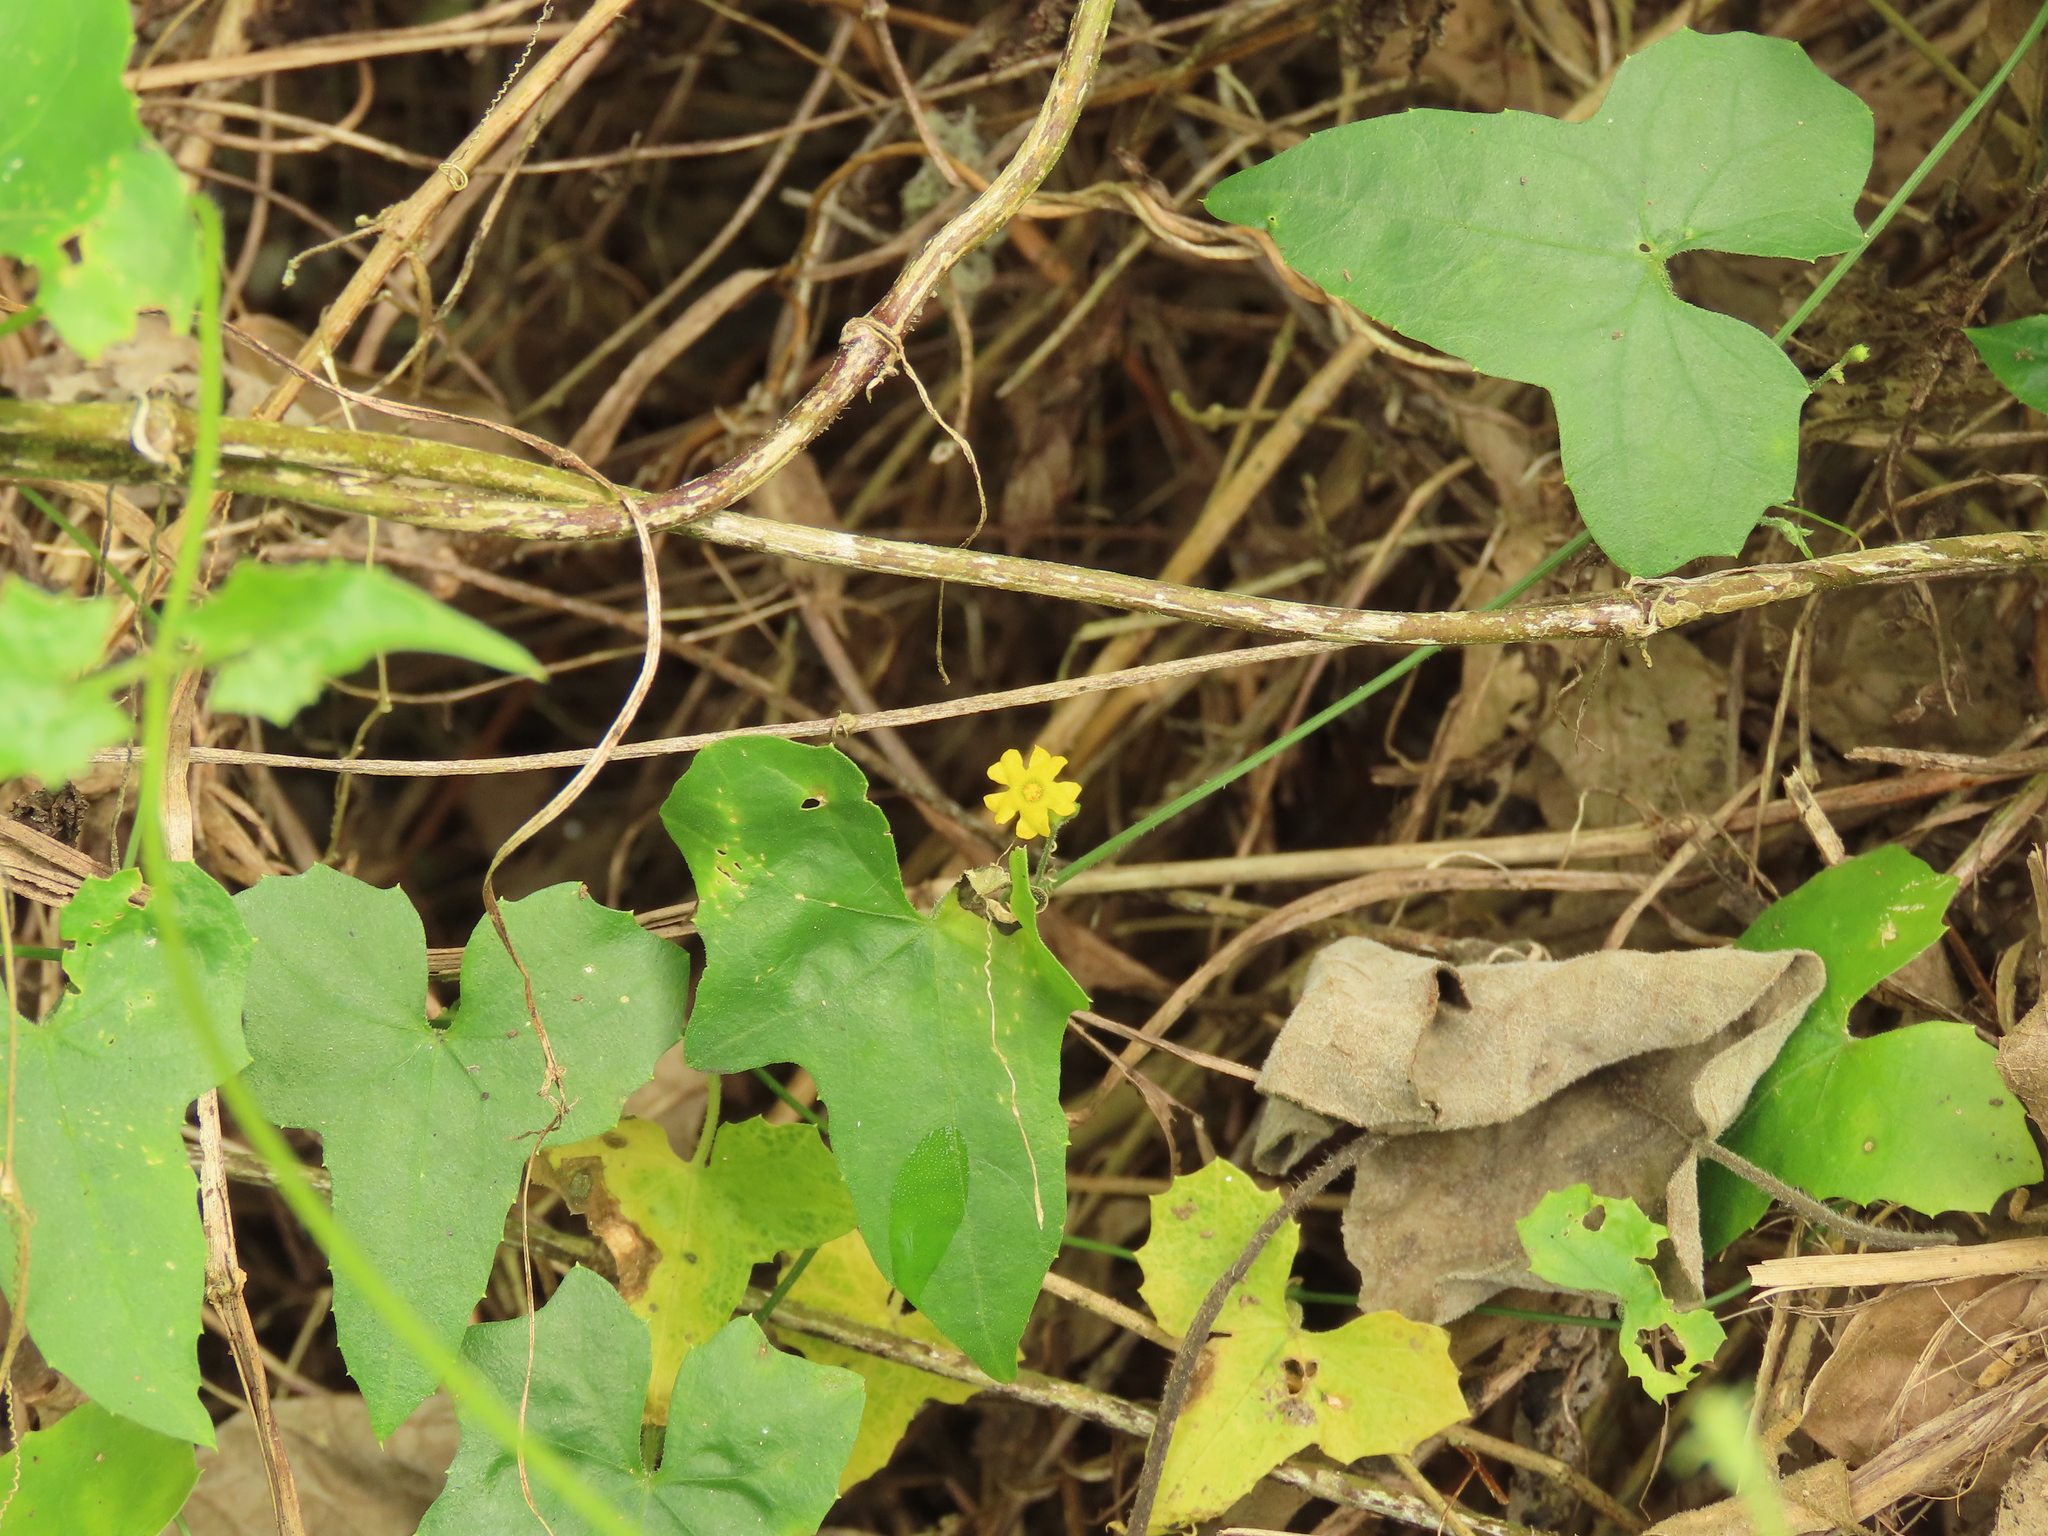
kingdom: Plantae
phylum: Tracheophyta
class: Magnoliopsida
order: Cucurbitales
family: Cucurbitaceae
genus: Melothria
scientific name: Melothria pendula
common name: Creeping-cucumber
